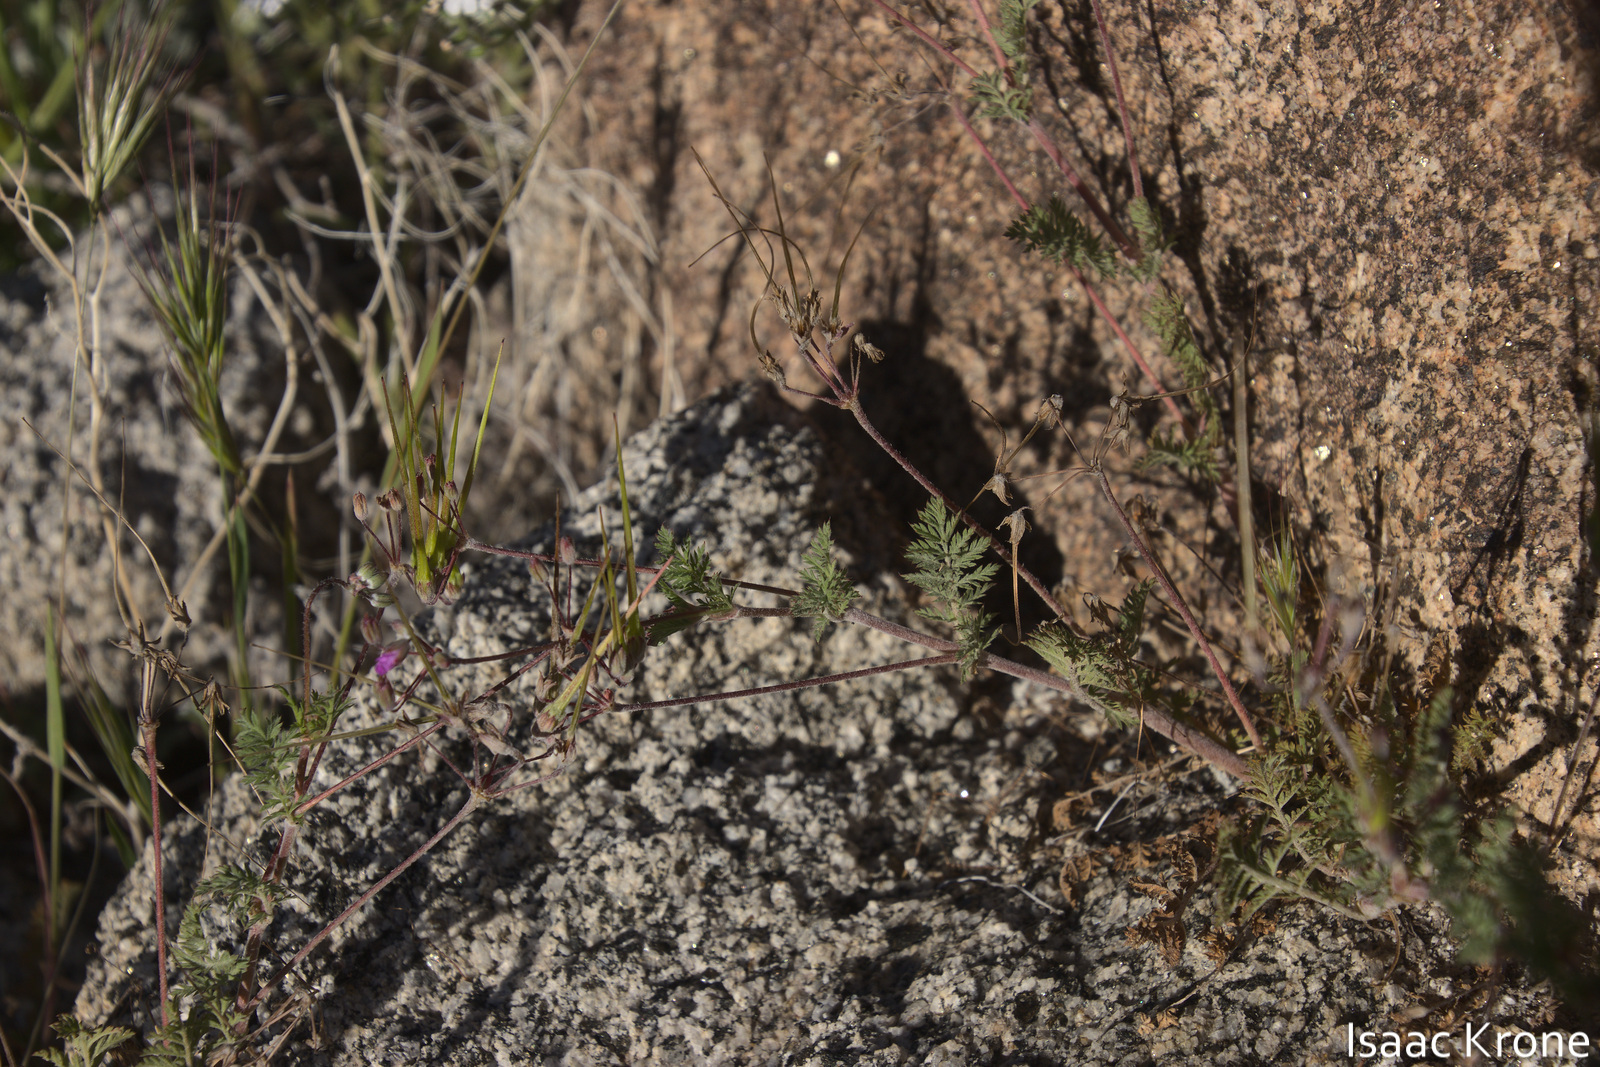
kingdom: Plantae
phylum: Tracheophyta
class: Magnoliopsida
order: Geraniales
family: Geraniaceae
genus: Erodium
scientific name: Erodium cicutarium
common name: Common stork's-bill
